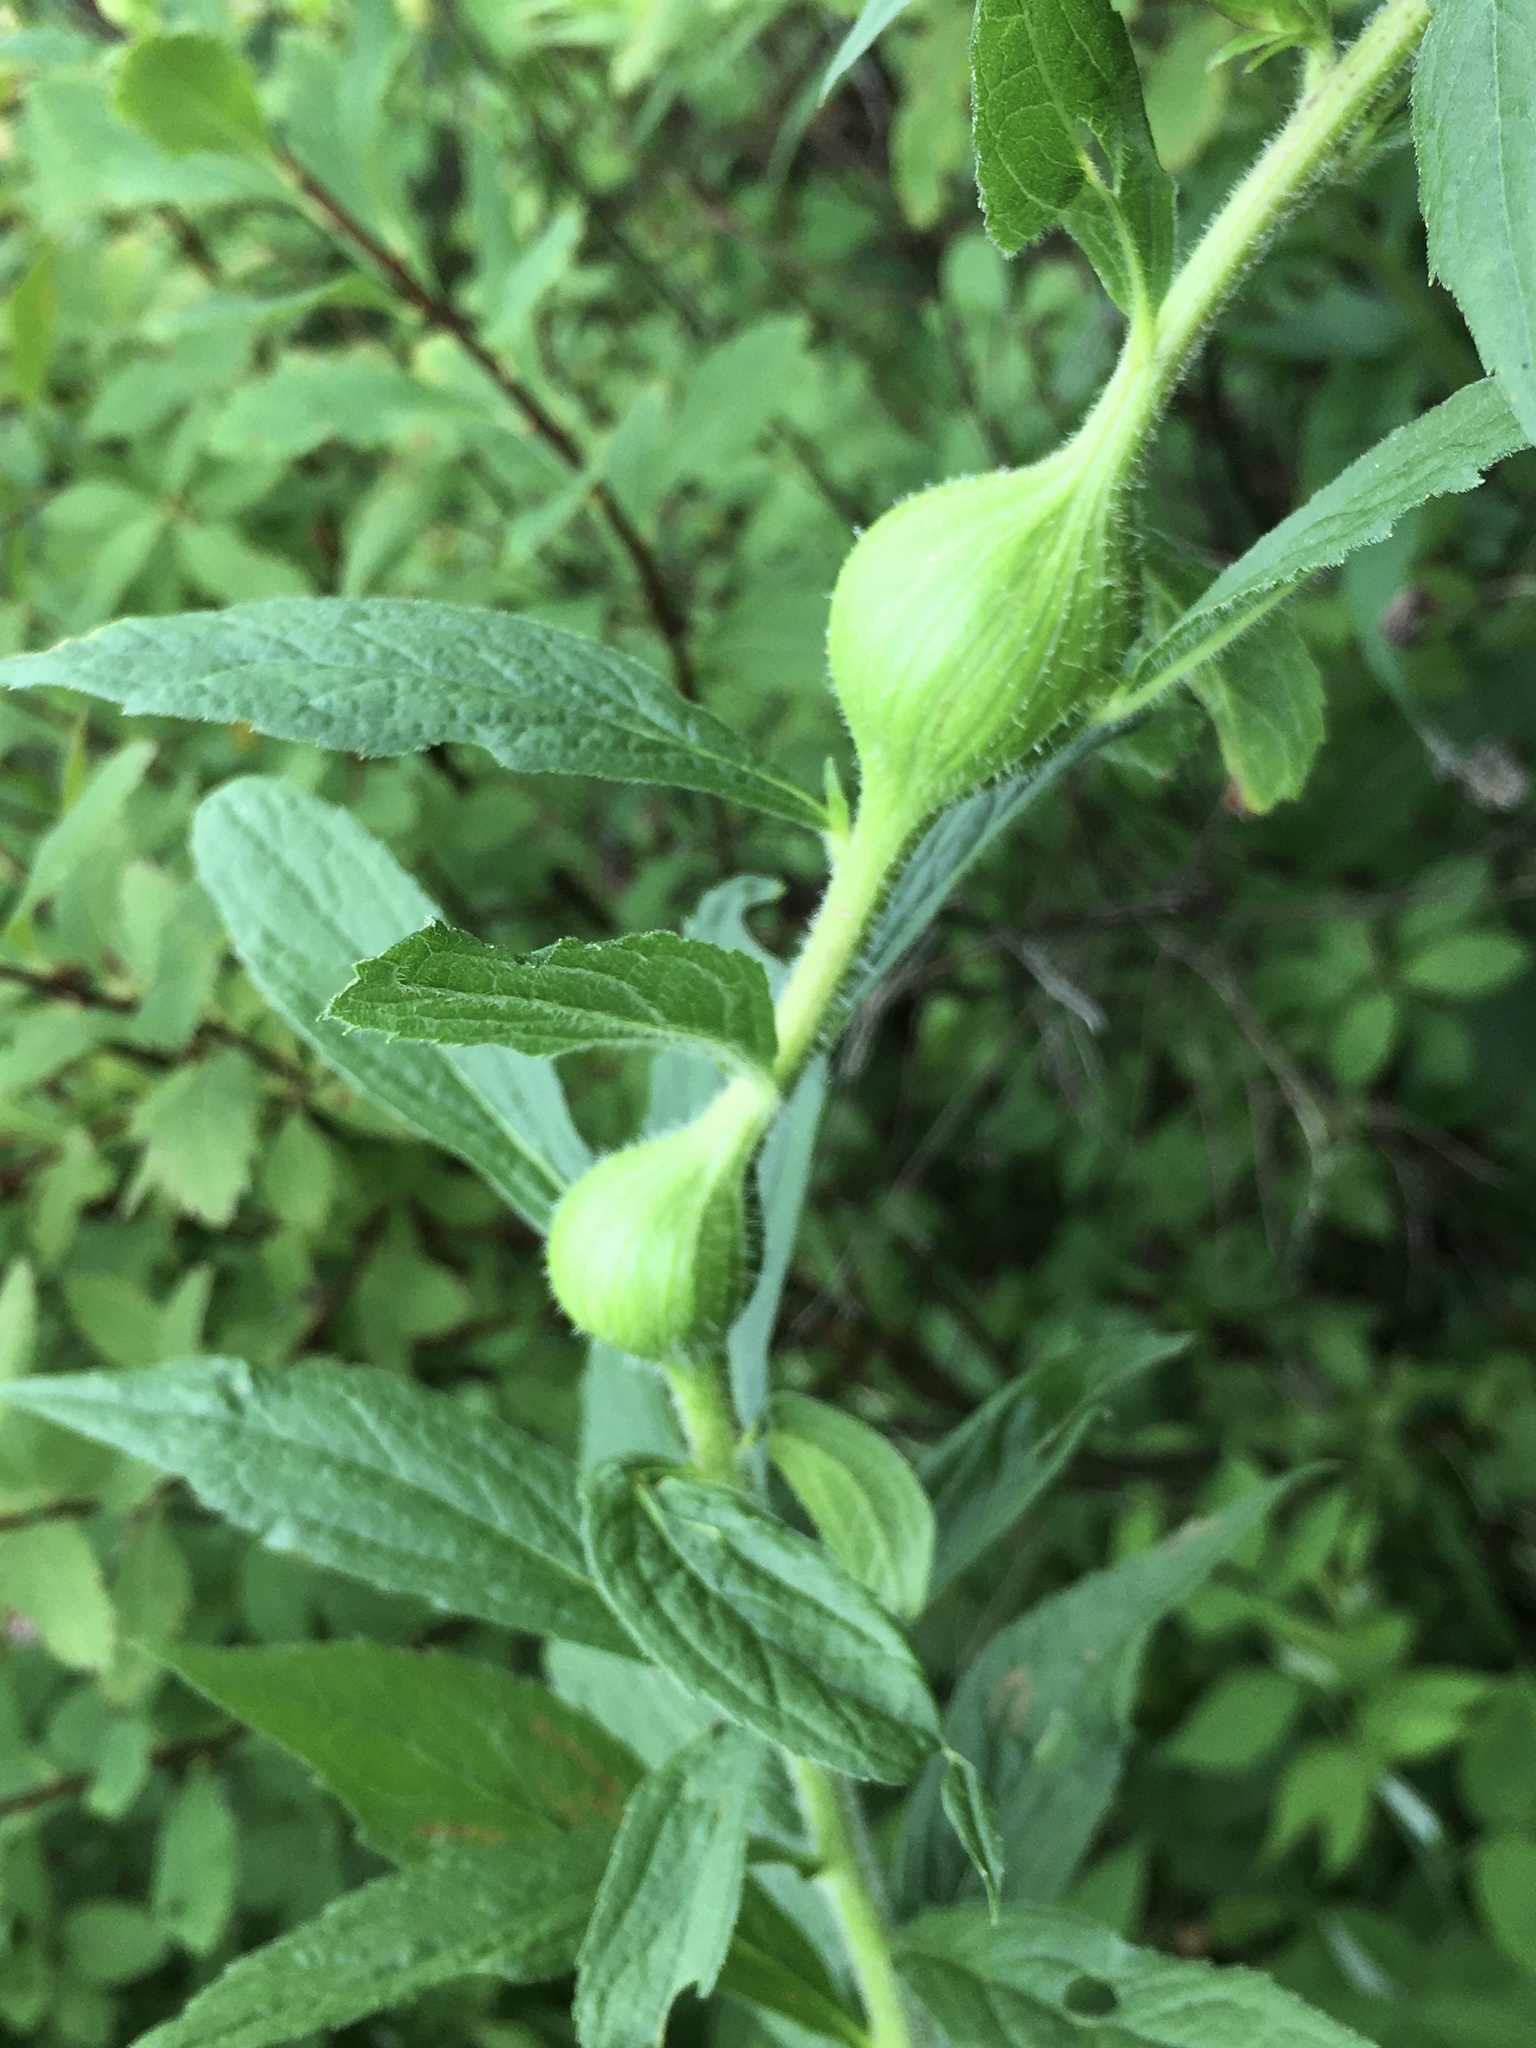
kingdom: Animalia
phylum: Arthropoda
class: Insecta
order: Diptera
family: Tephritidae
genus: Eurosta
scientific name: Eurosta solidaginis
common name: Goldenrod gall fly
